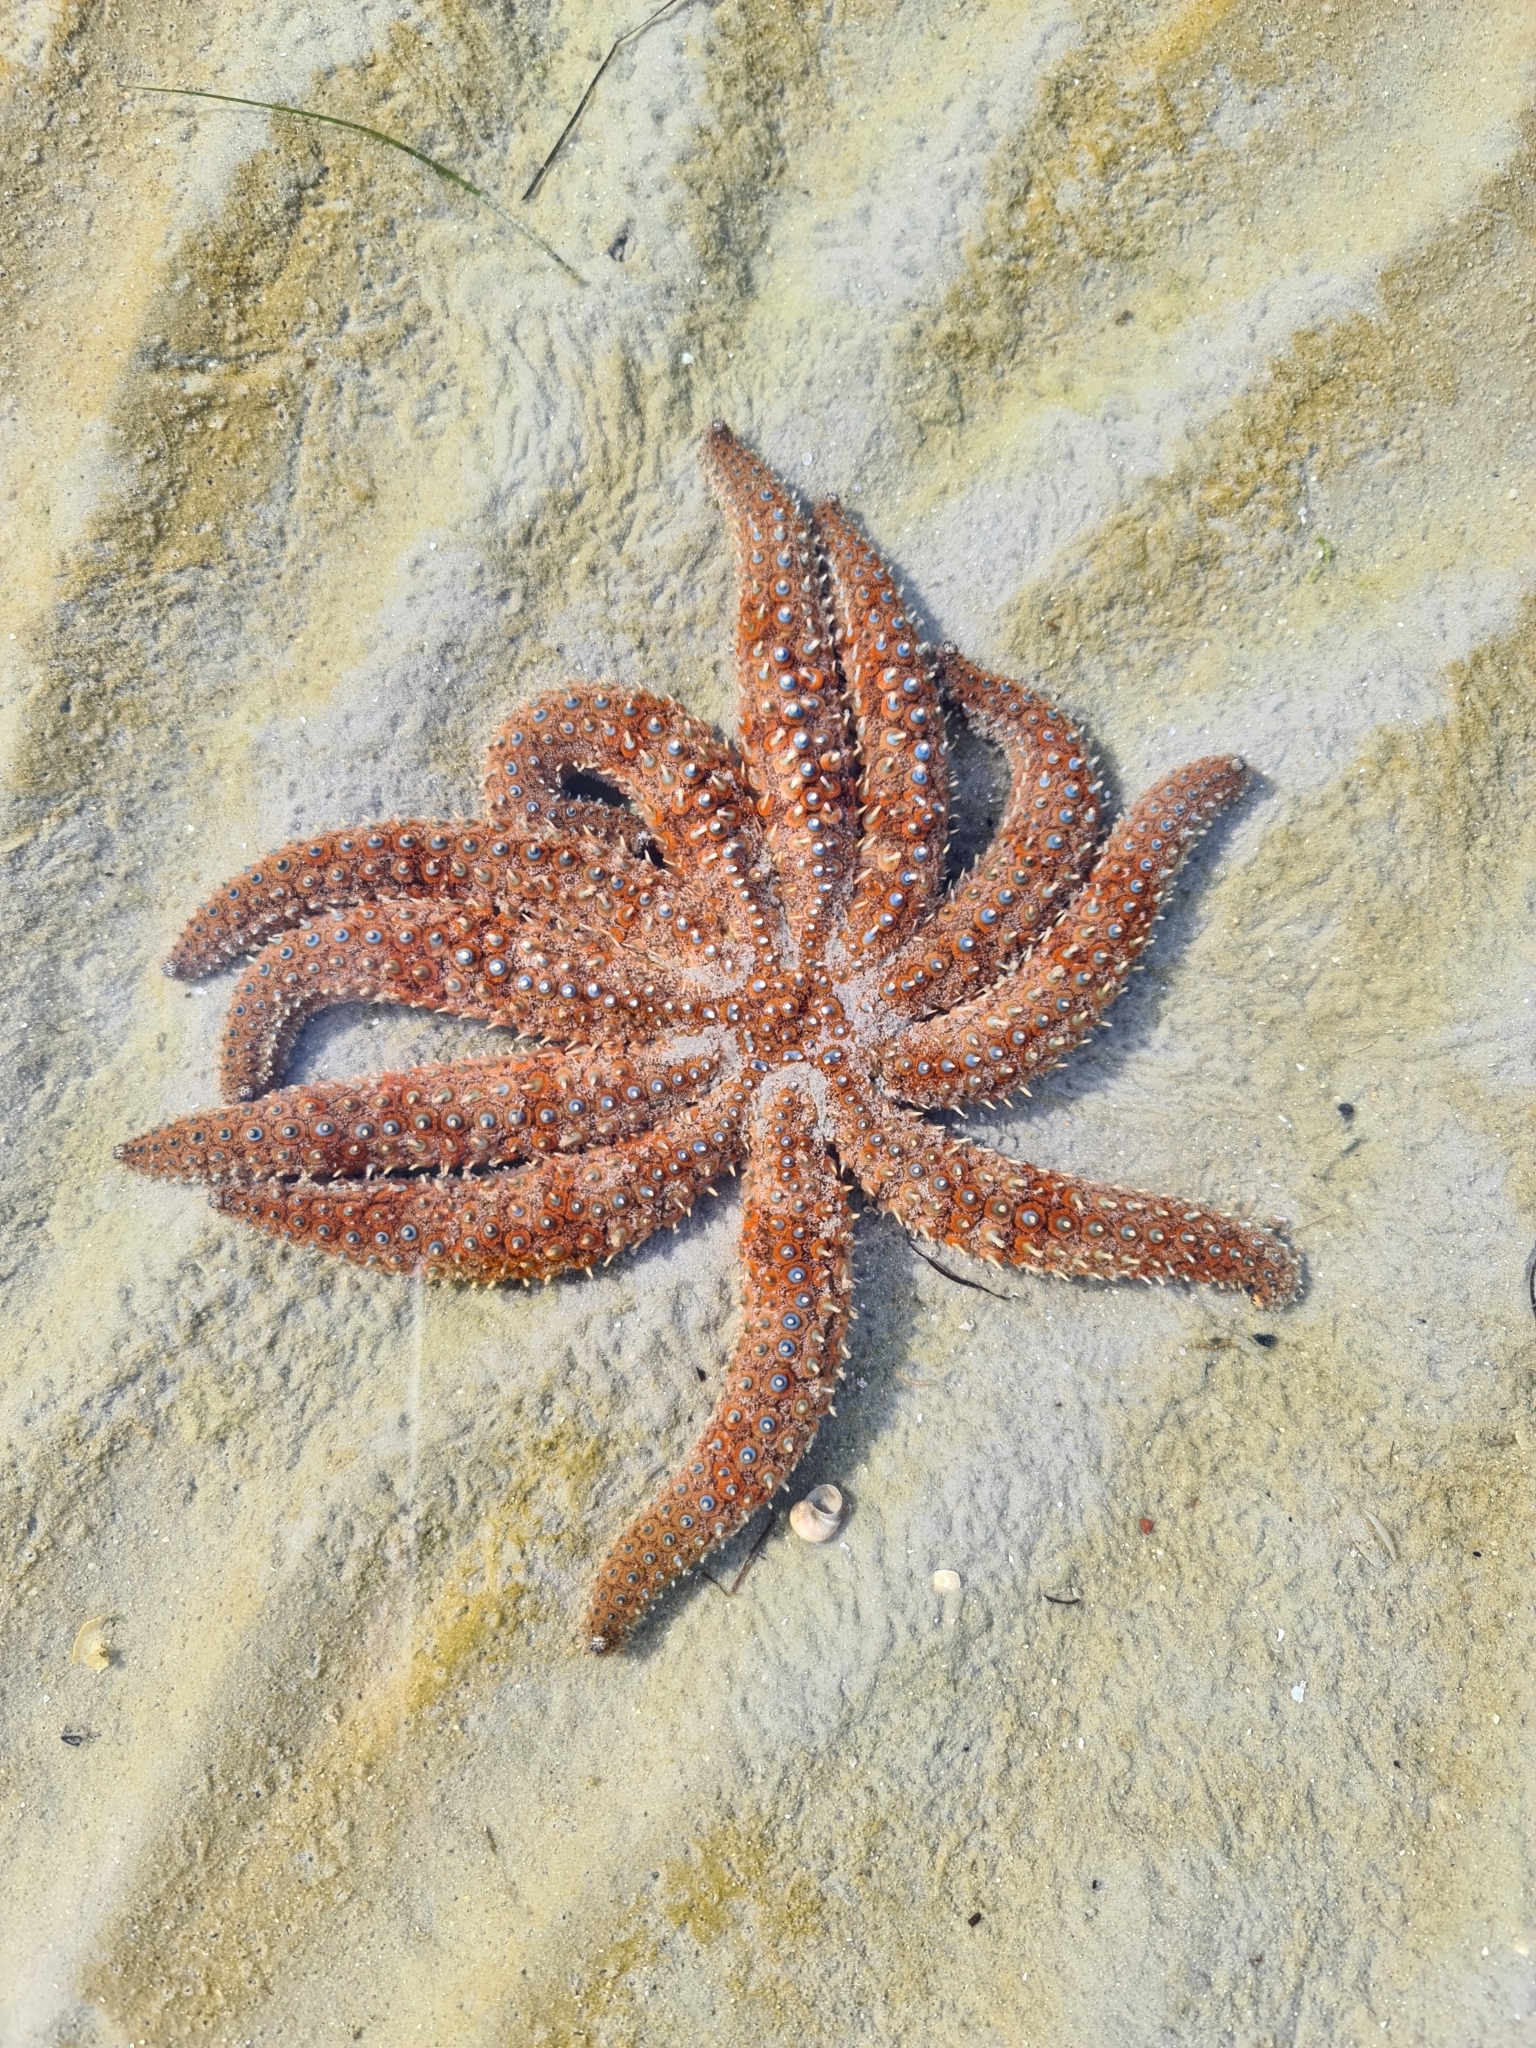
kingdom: Animalia
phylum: Echinodermata
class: Asteroidea
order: Forcipulatida
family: Asteriidae
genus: Coscinasterias
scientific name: Coscinasterias muricata
